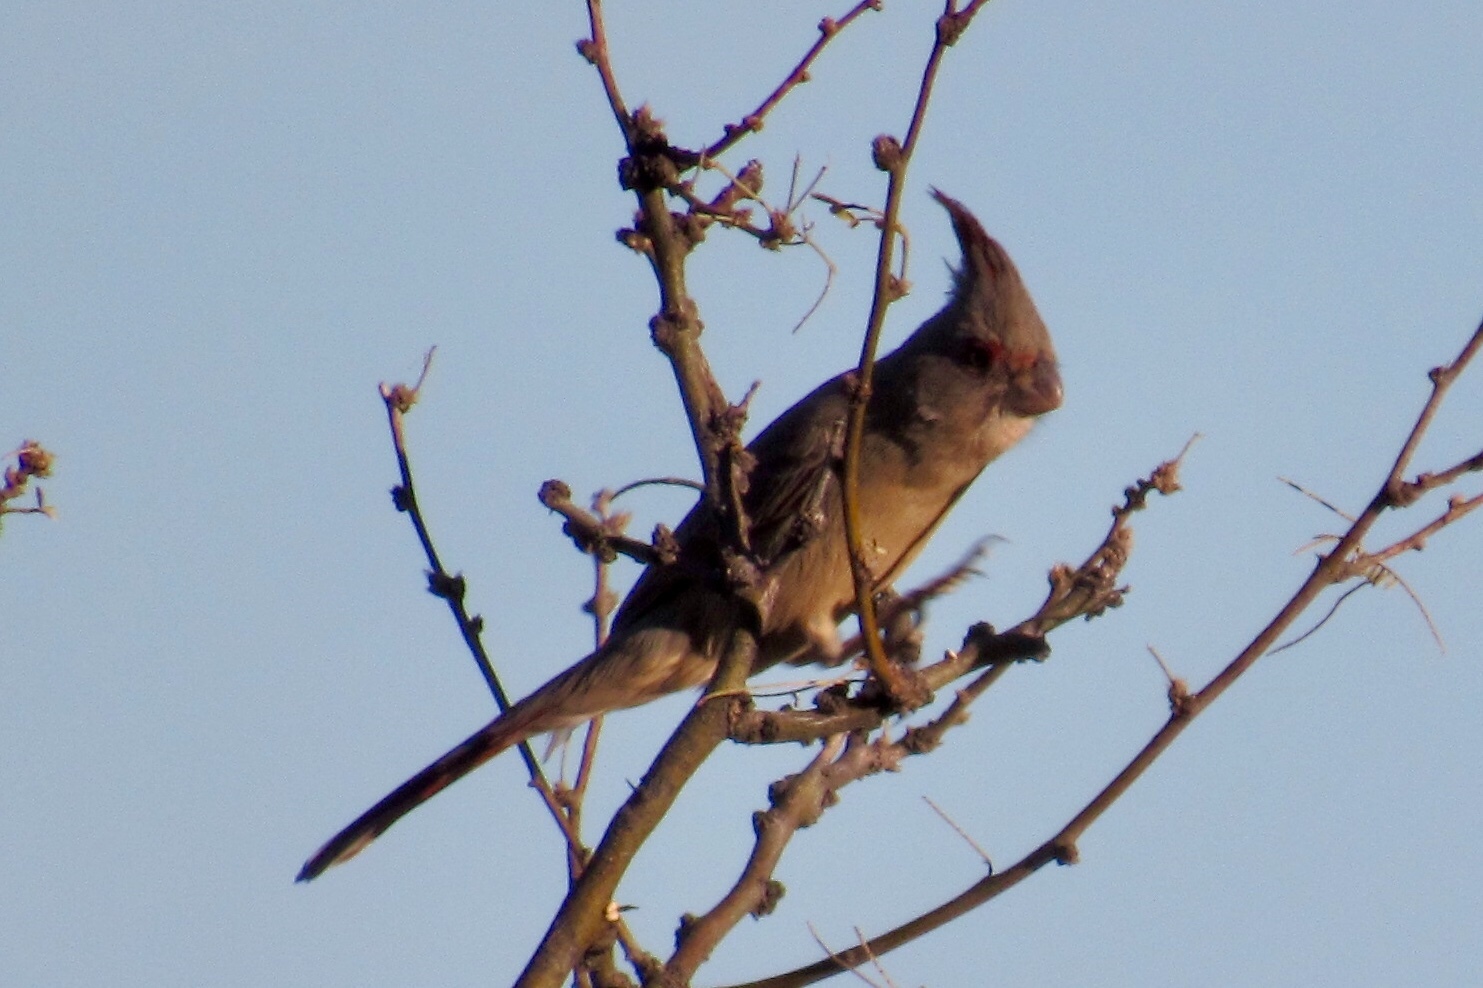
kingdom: Animalia
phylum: Chordata
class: Aves
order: Passeriformes
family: Cardinalidae
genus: Cardinalis
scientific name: Cardinalis sinuatus
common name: Pyrrhuloxia
